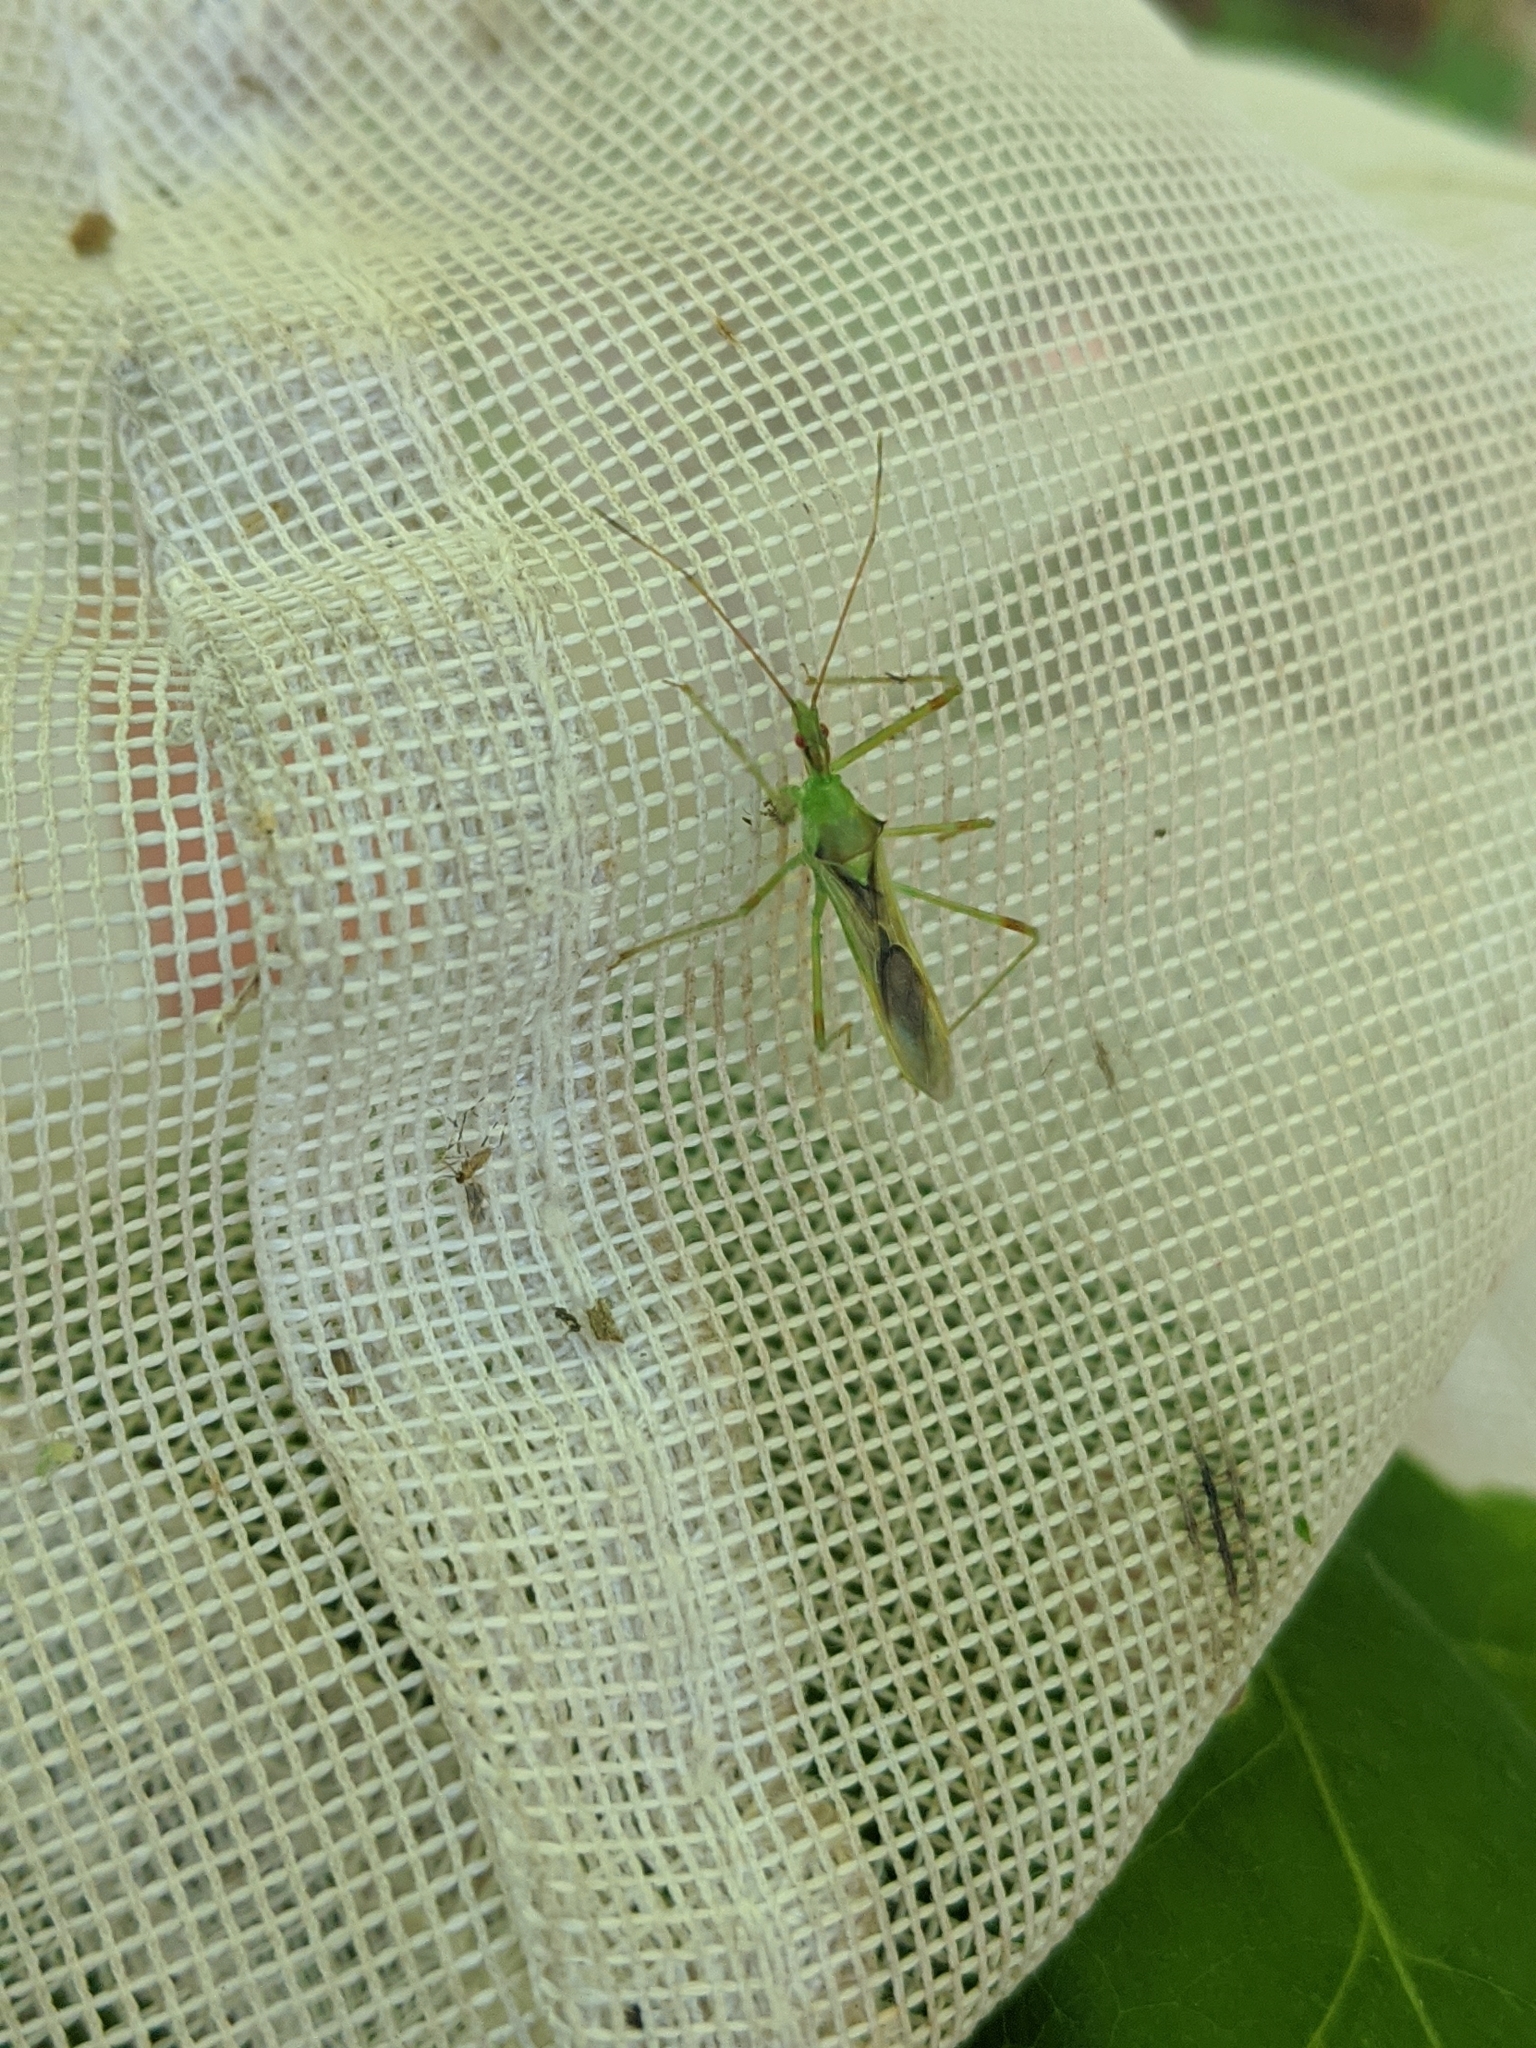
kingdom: Animalia
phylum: Arthropoda
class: Insecta
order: Hemiptera
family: Reduviidae
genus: Zelus
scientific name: Zelus luridus
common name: Pale green assassin bug
